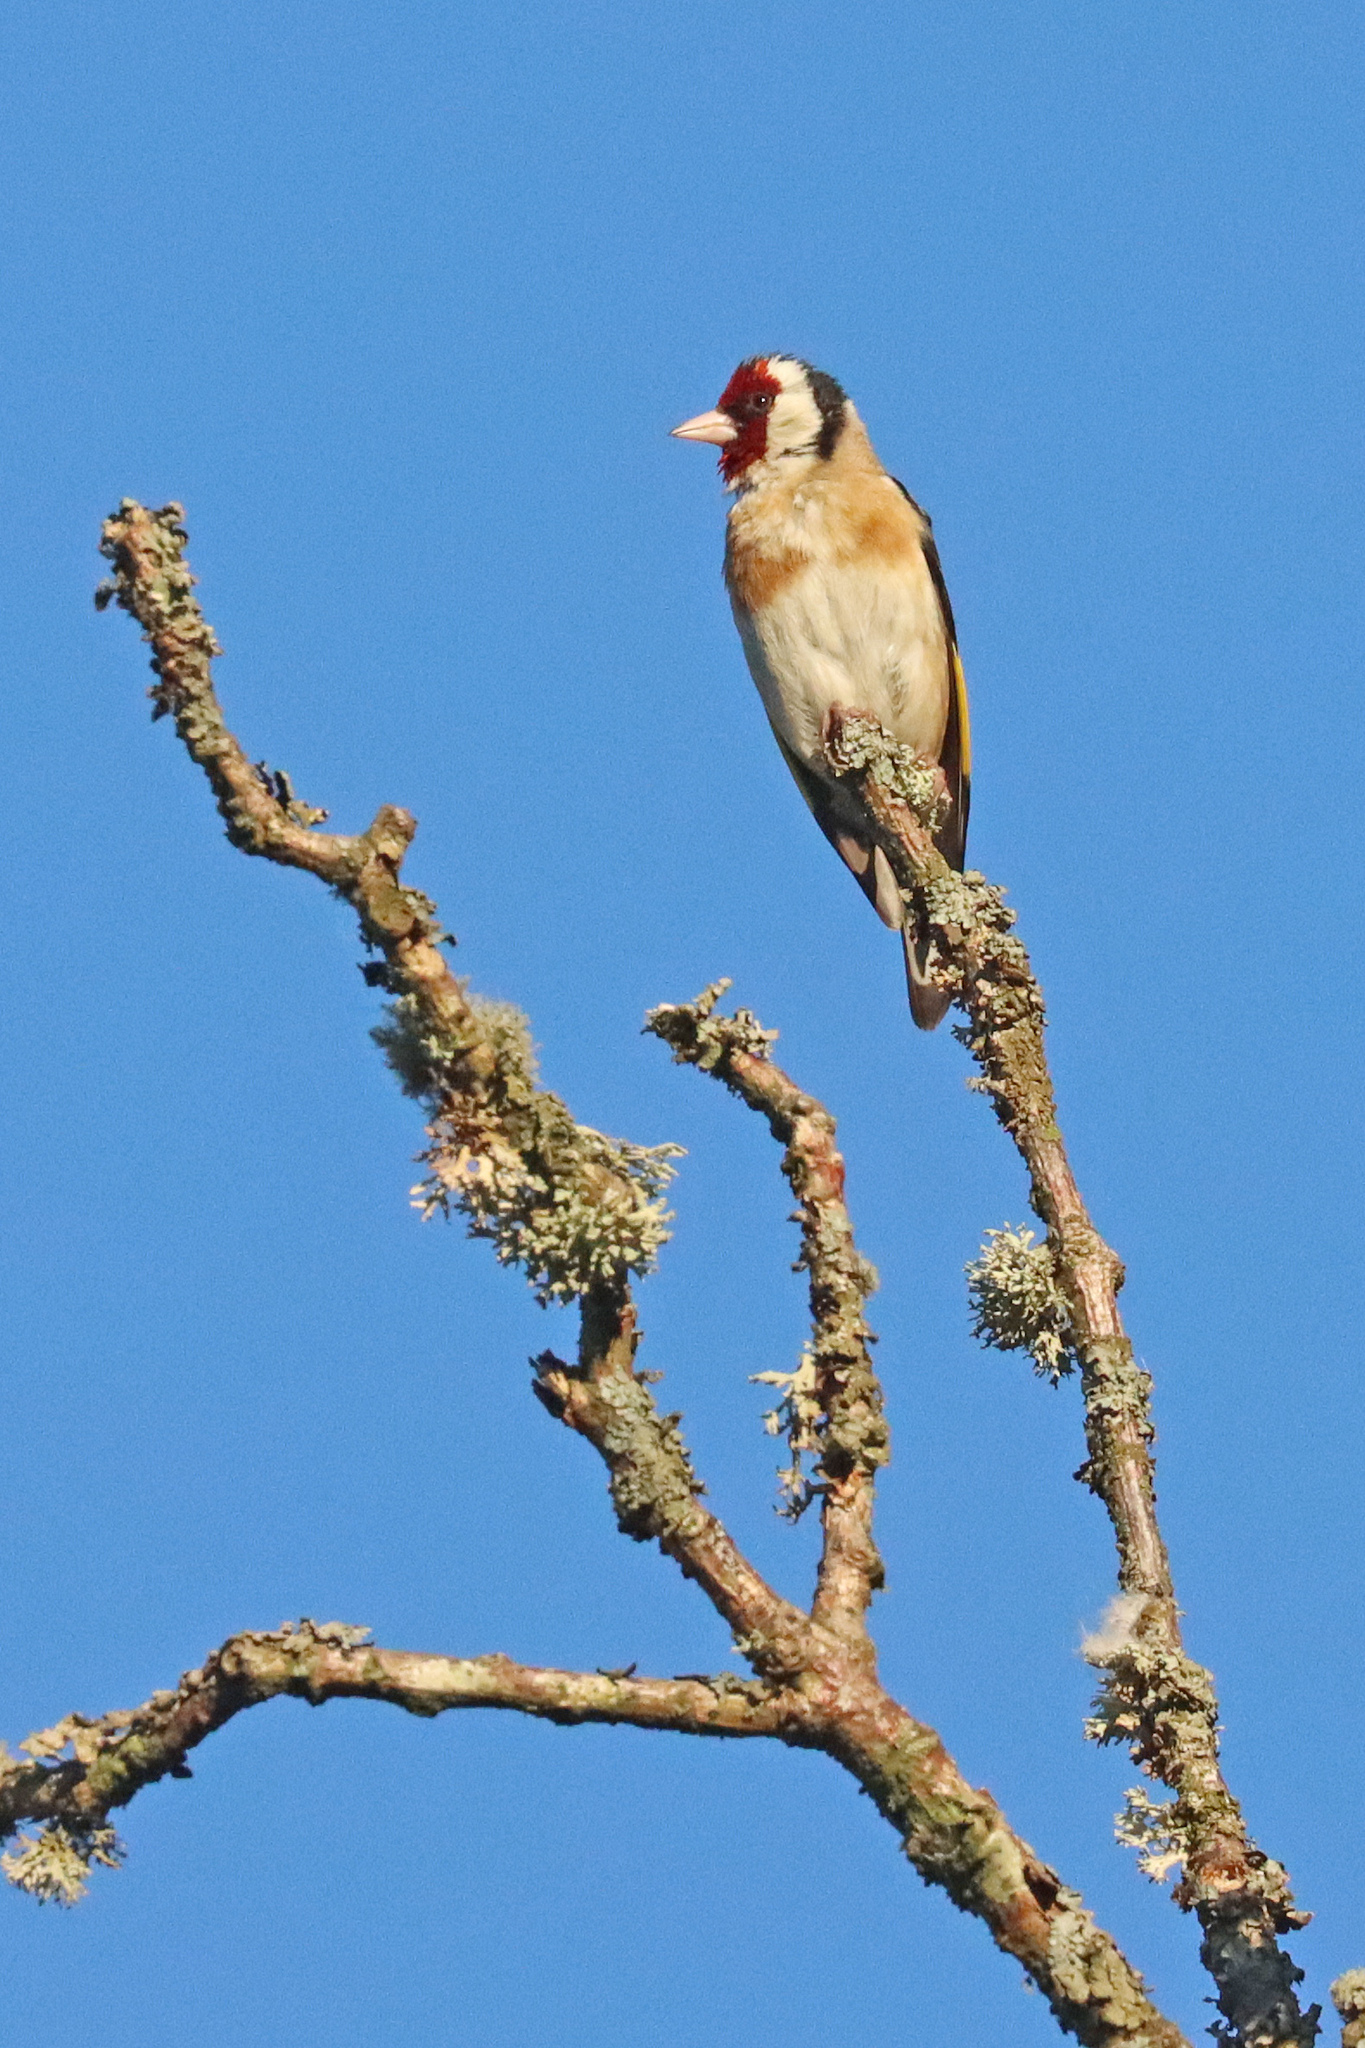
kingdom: Animalia
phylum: Chordata
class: Aves
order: Passeriformes
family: Fringillidae
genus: Carduelis
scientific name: Carduelis carduelis
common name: European goldfinch
